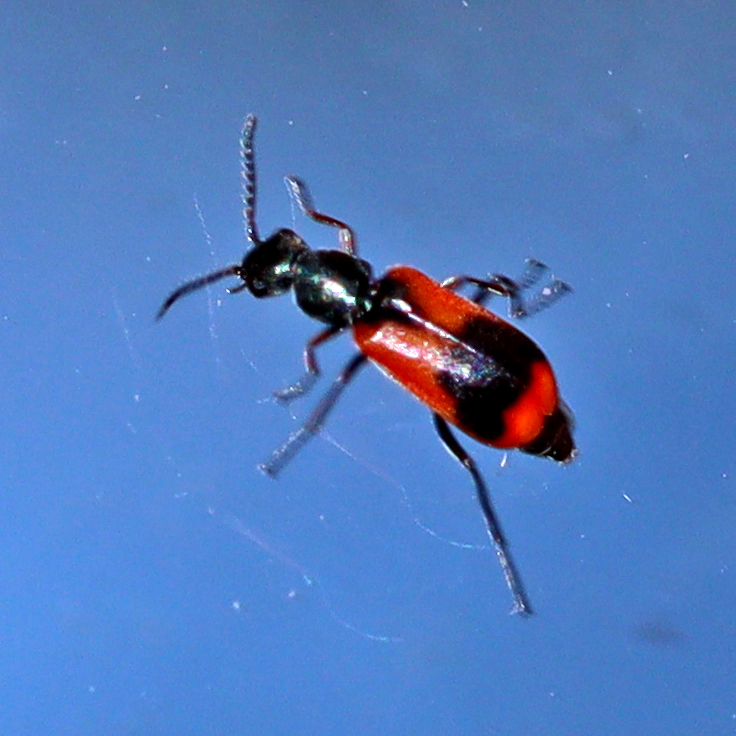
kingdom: Animalia
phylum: Arthropoda
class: Insecta
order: Coleoptera
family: Melyridae
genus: Anthocomus
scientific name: Anthocomus equestris
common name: Black-banded soft-winged flower beetle
